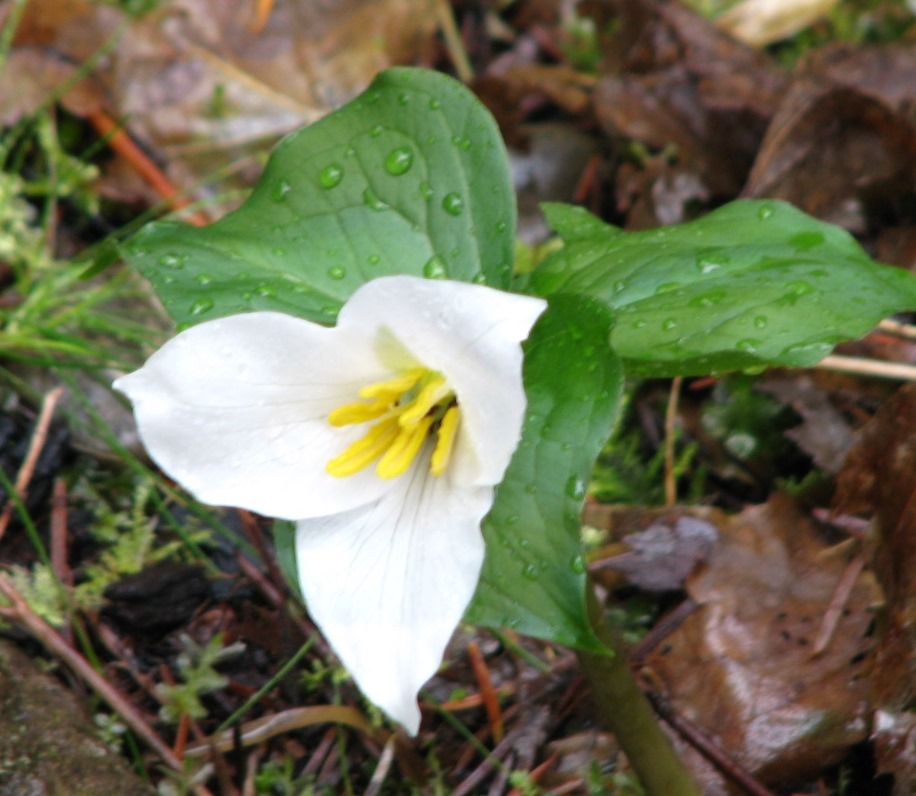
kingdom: Plantae
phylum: Tracheophyta
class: Liliopsida
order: Liliales
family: Melanthiaceae
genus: Trillium
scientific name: Trillium ovatum
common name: Pacific trillium
